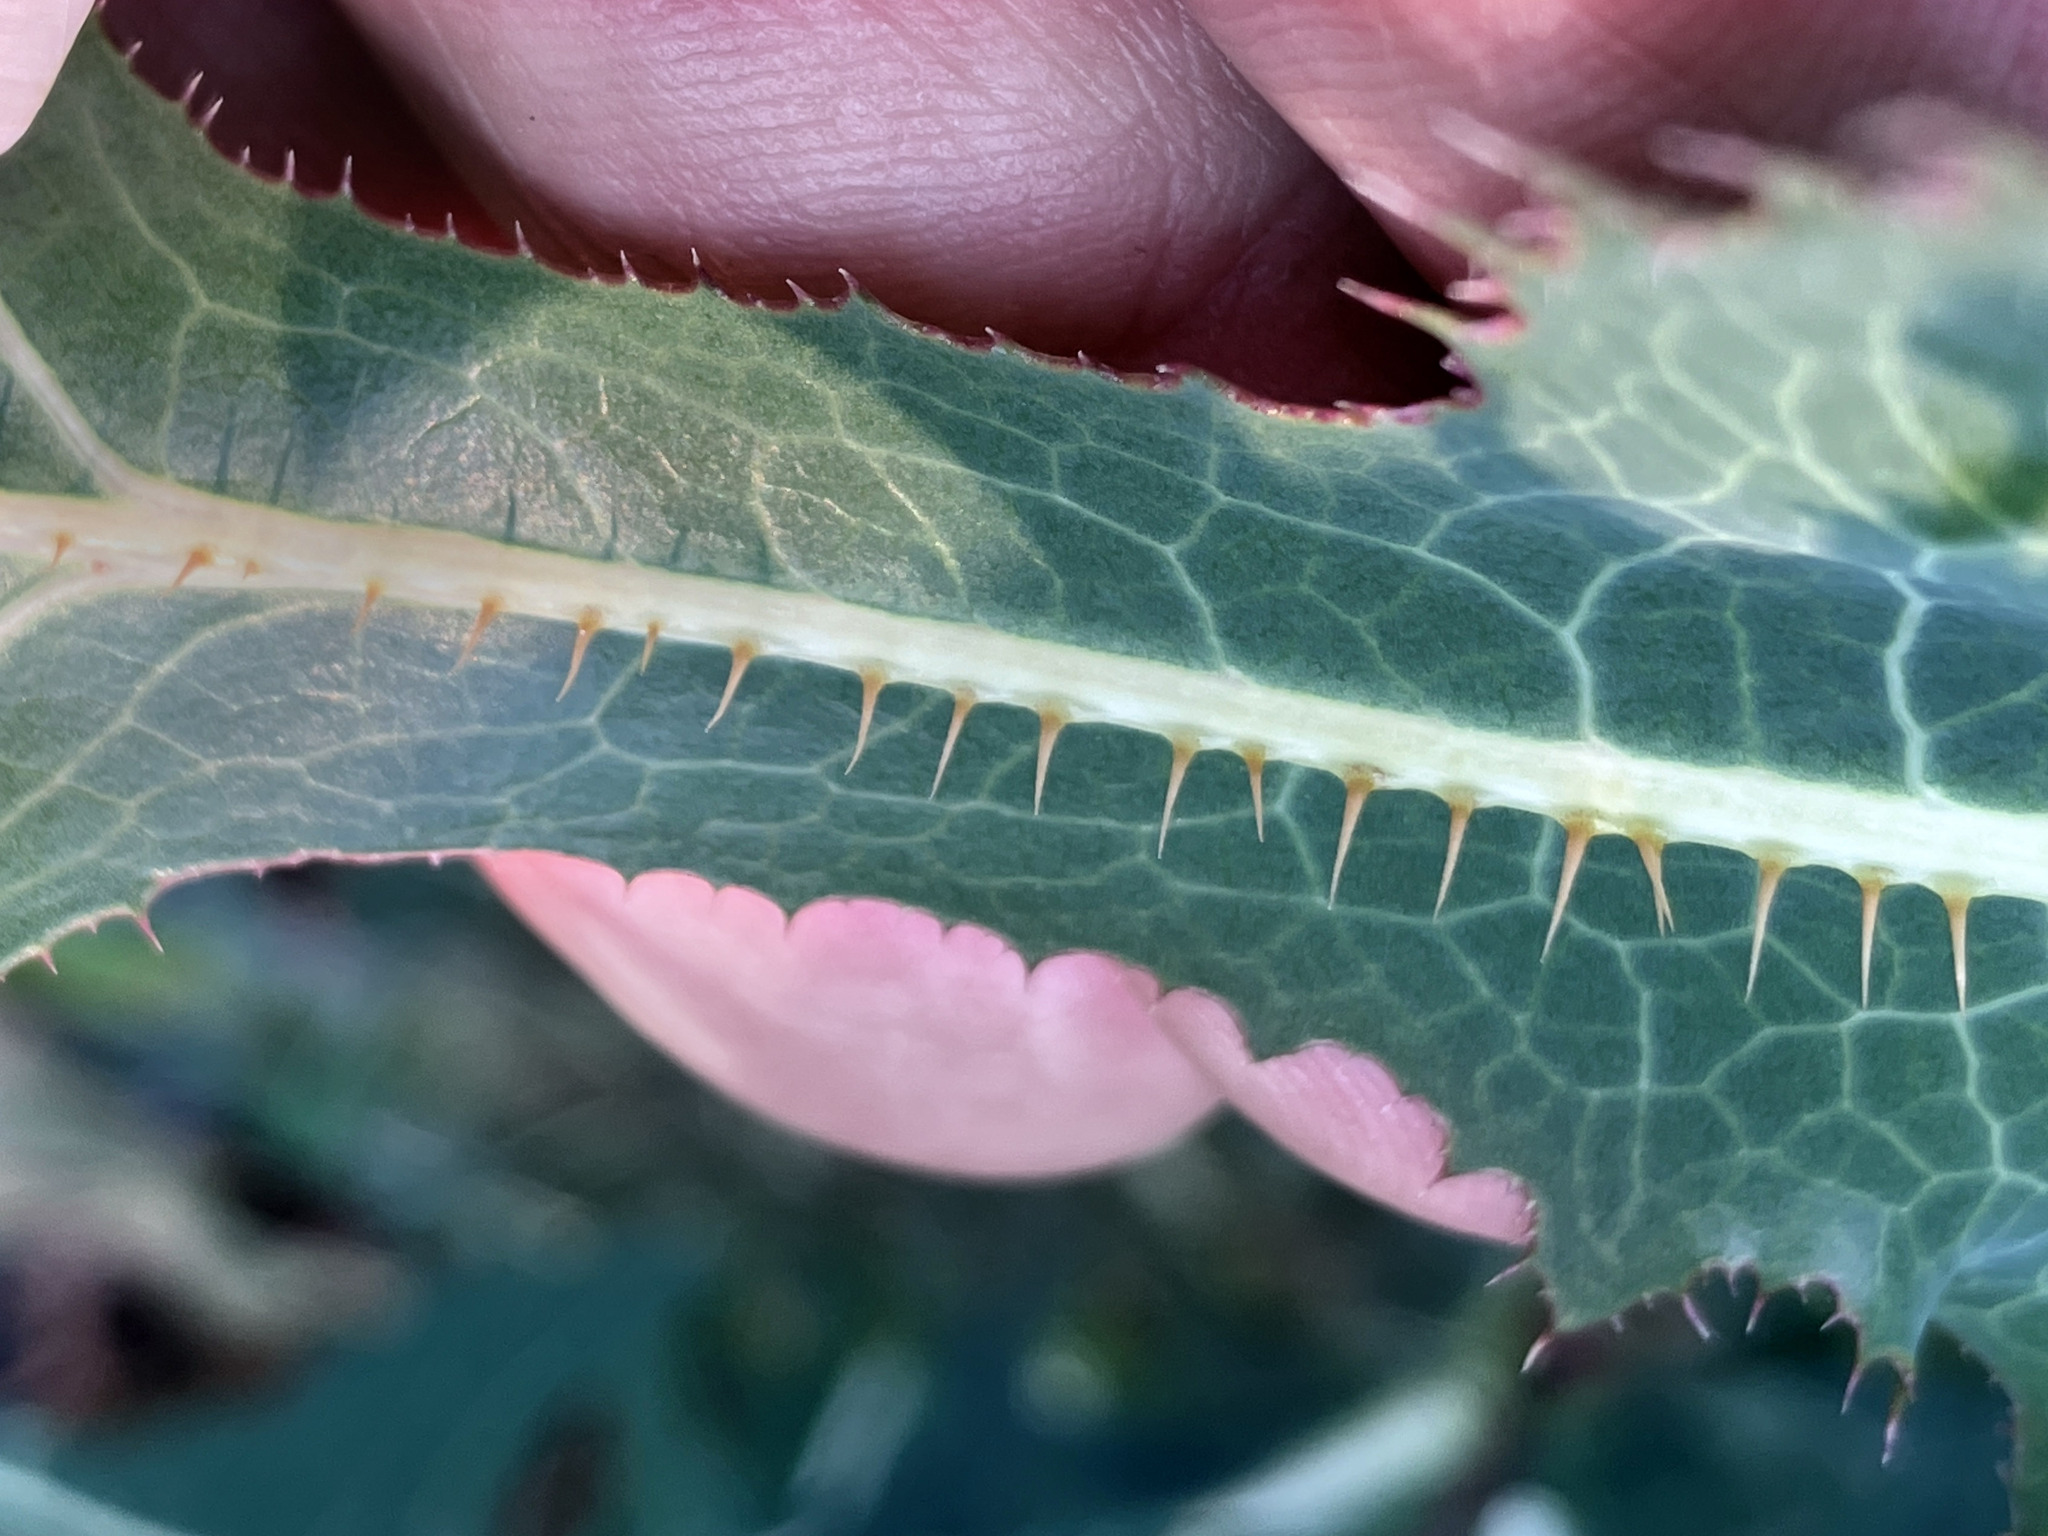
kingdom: Plantae
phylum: Tracheophyta
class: Magnoliopsida
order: Asterales
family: Asteraceae
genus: Lactuca
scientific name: Lactuca serriola
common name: Prickly lettuce
